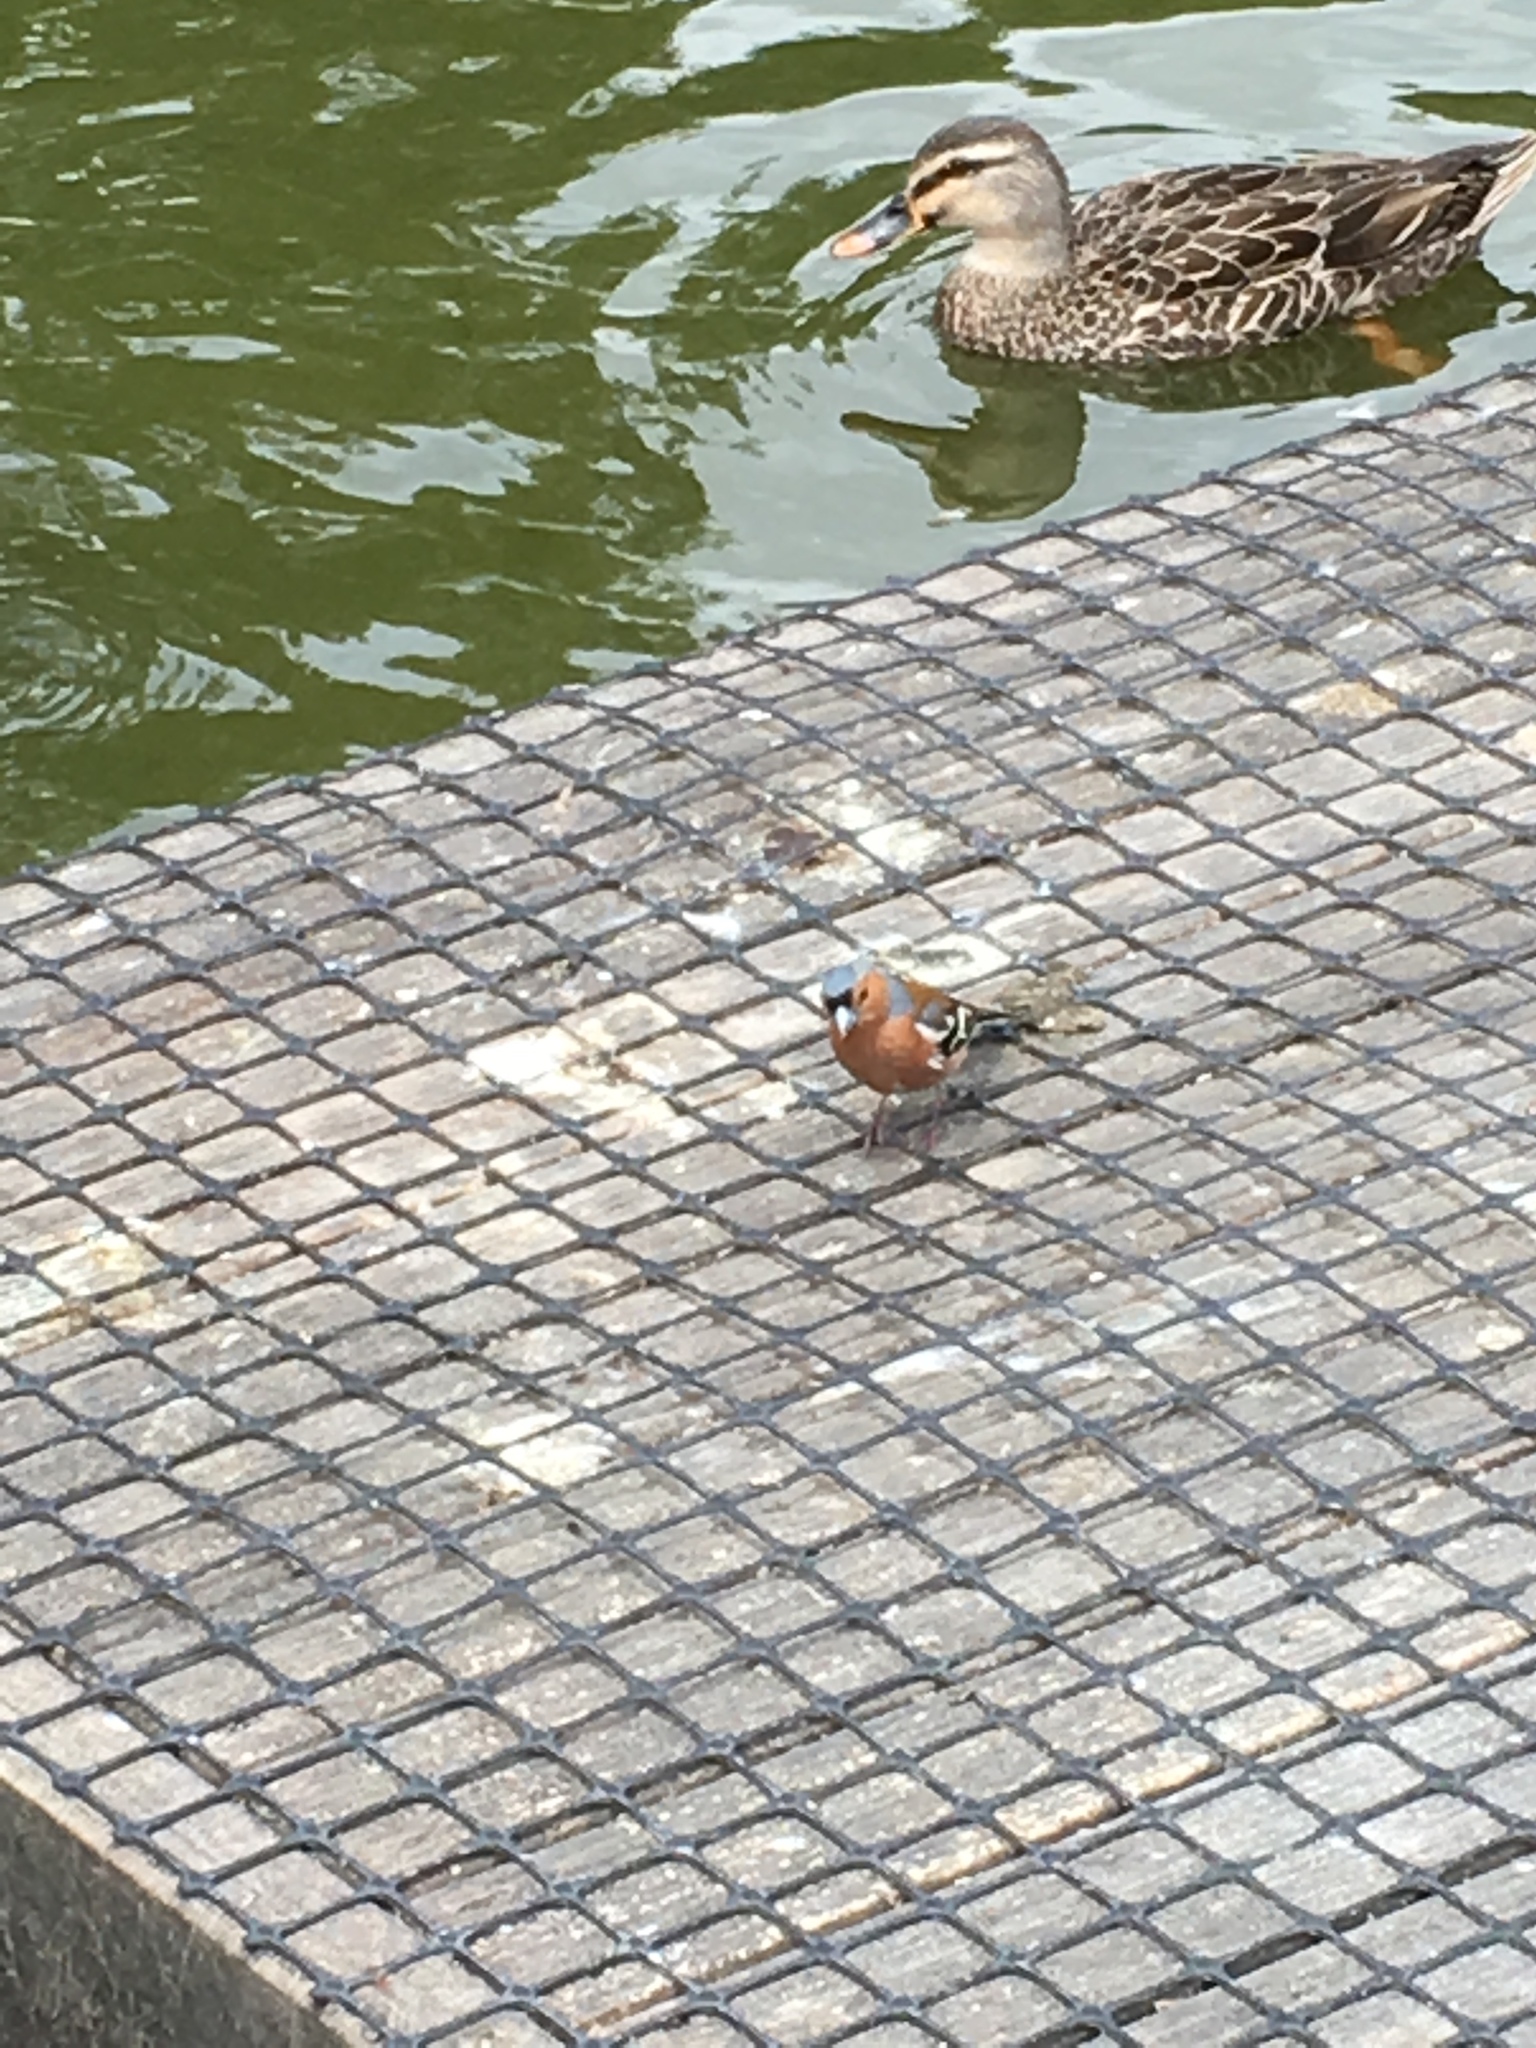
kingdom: Animalia
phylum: Chordata
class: Aves
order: Passeriformes
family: Fringillidae
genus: Fringilla
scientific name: Fringilla coelebs
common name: Common chaffinch
